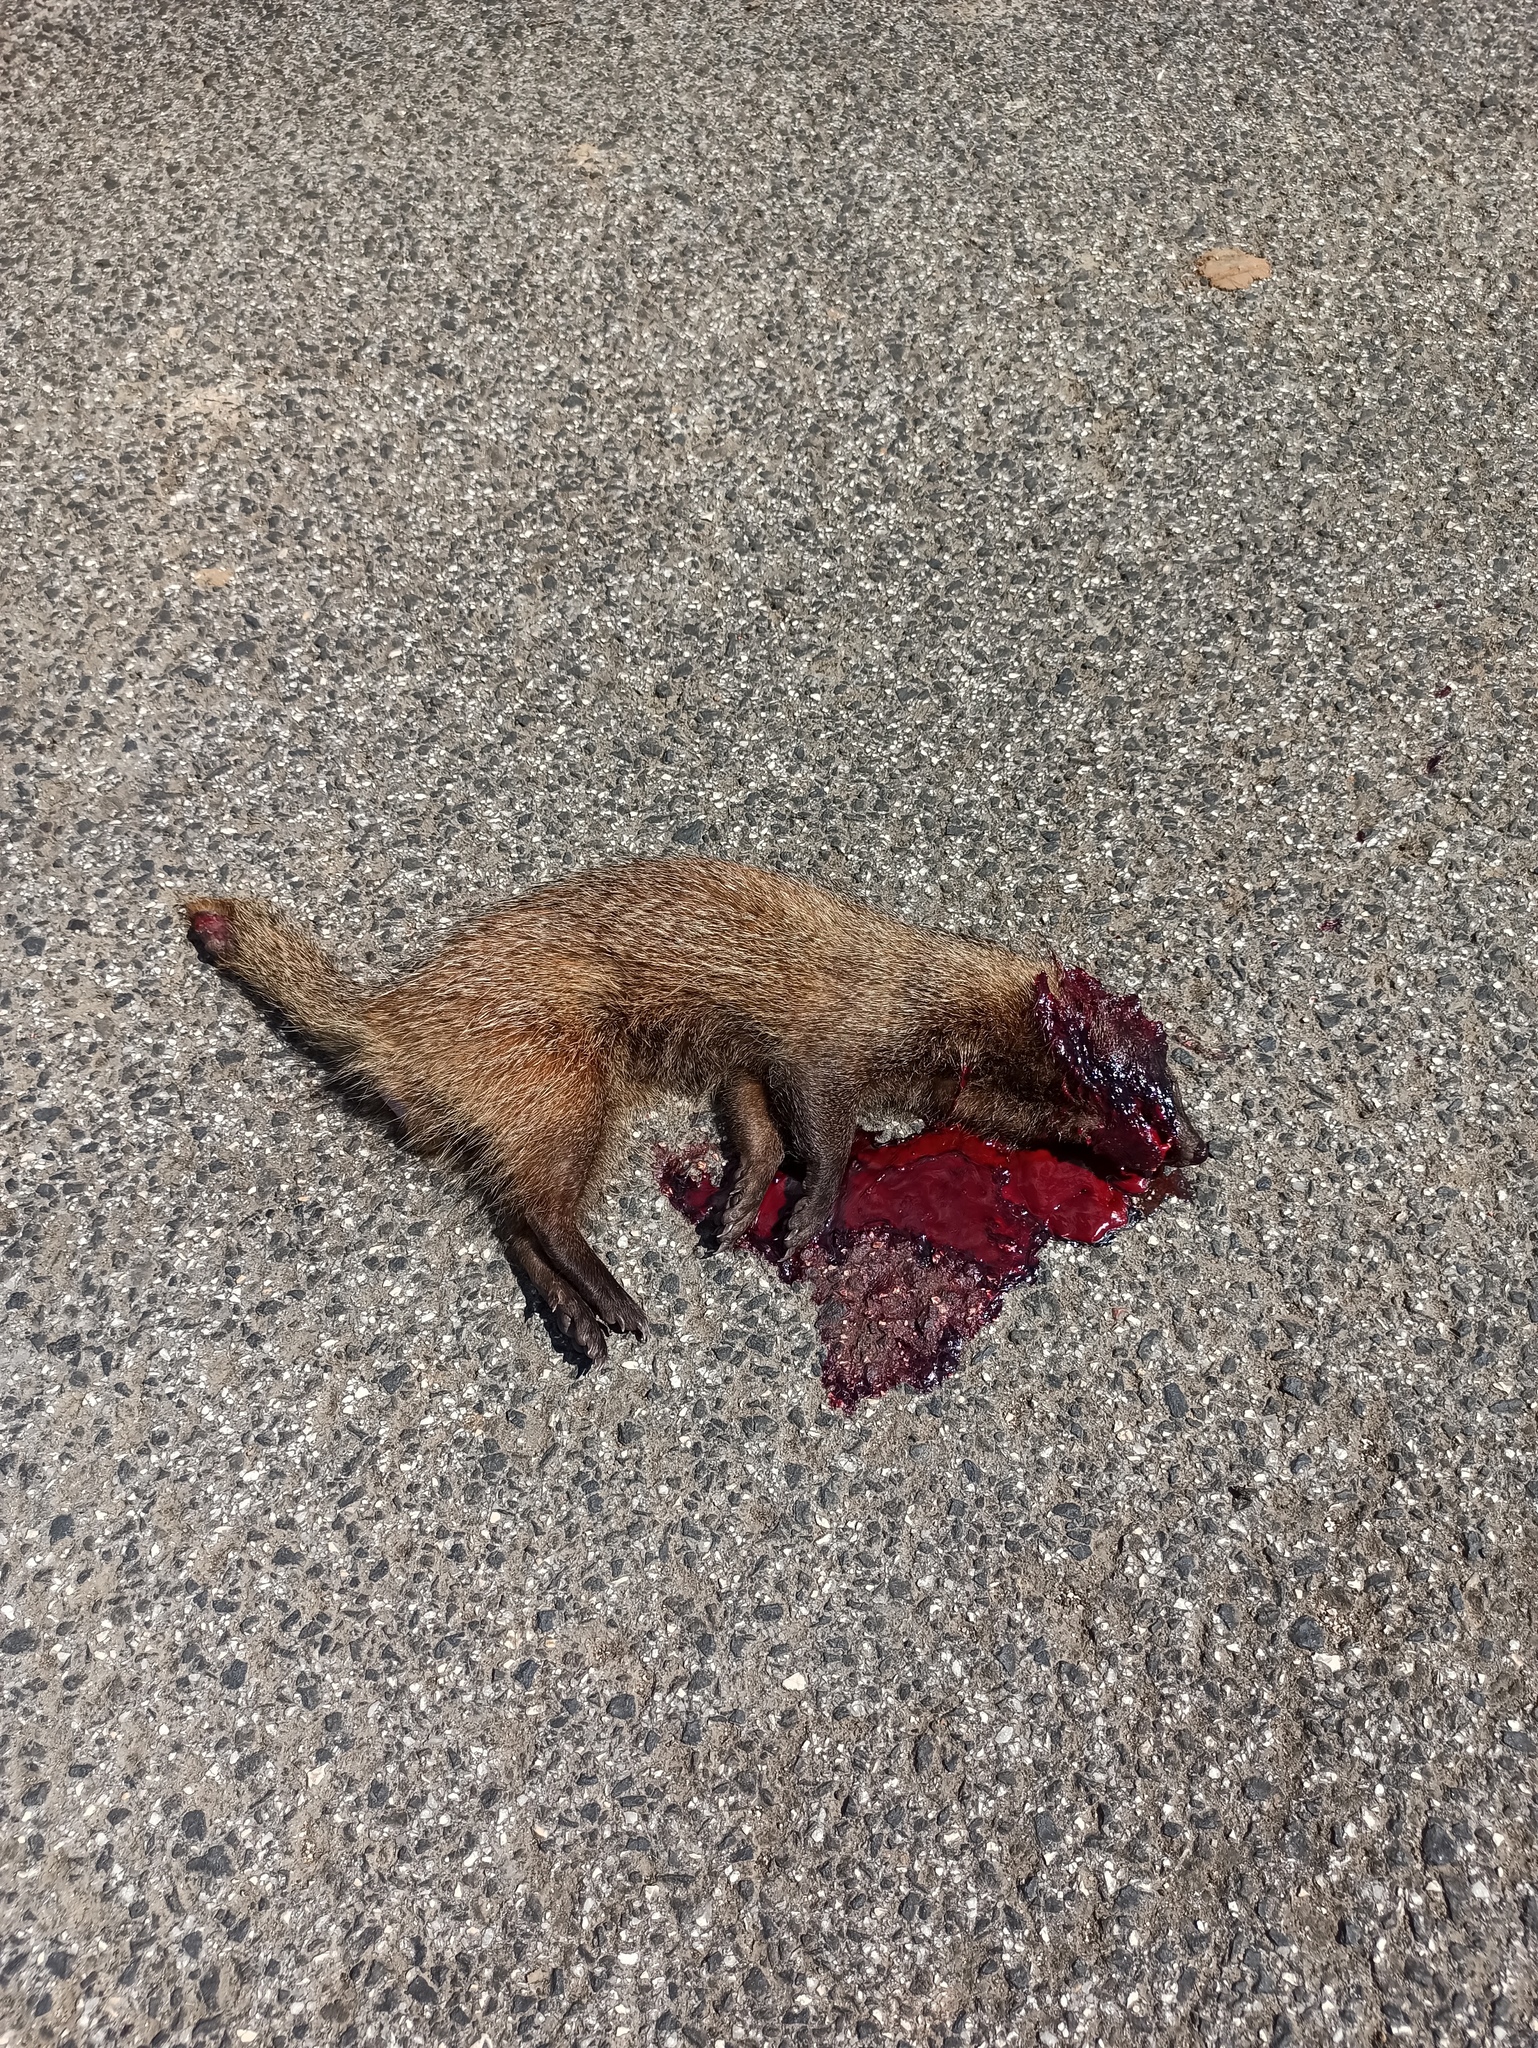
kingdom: Animalia
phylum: Chordata
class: Mammalia
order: Carnivora
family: Herpestidae
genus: Herpestes
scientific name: Herpestes ichneumon
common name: Egyptian mongoose
